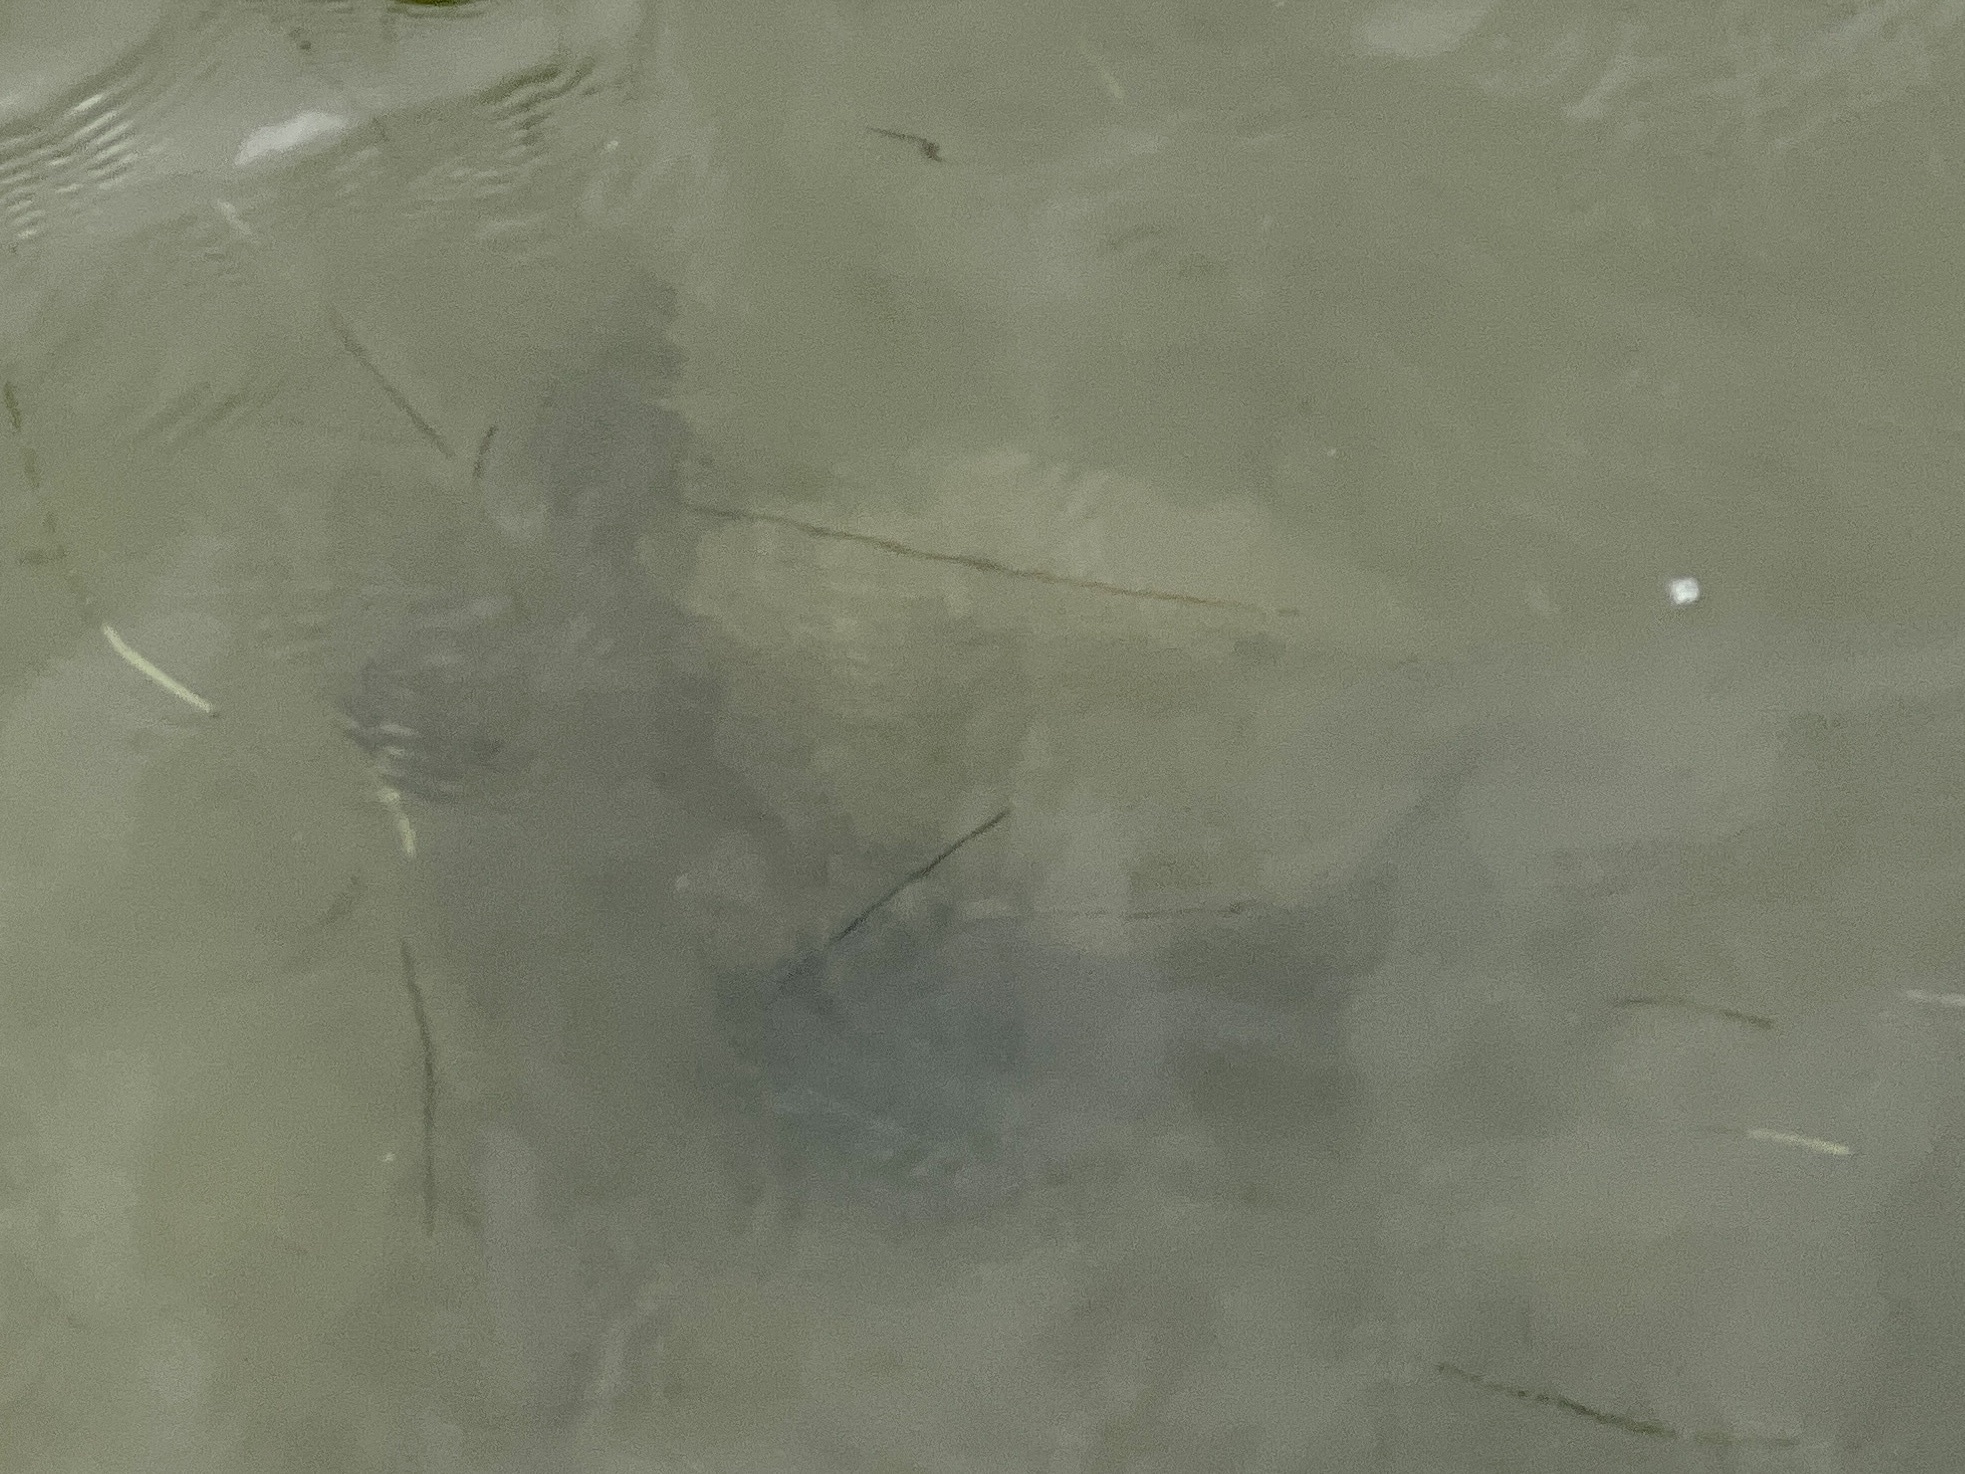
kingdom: Animalia
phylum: Chordata
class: Testudines
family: Cheloniidae
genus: Chelonia
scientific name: Chelonia mydas
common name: Green turtle
